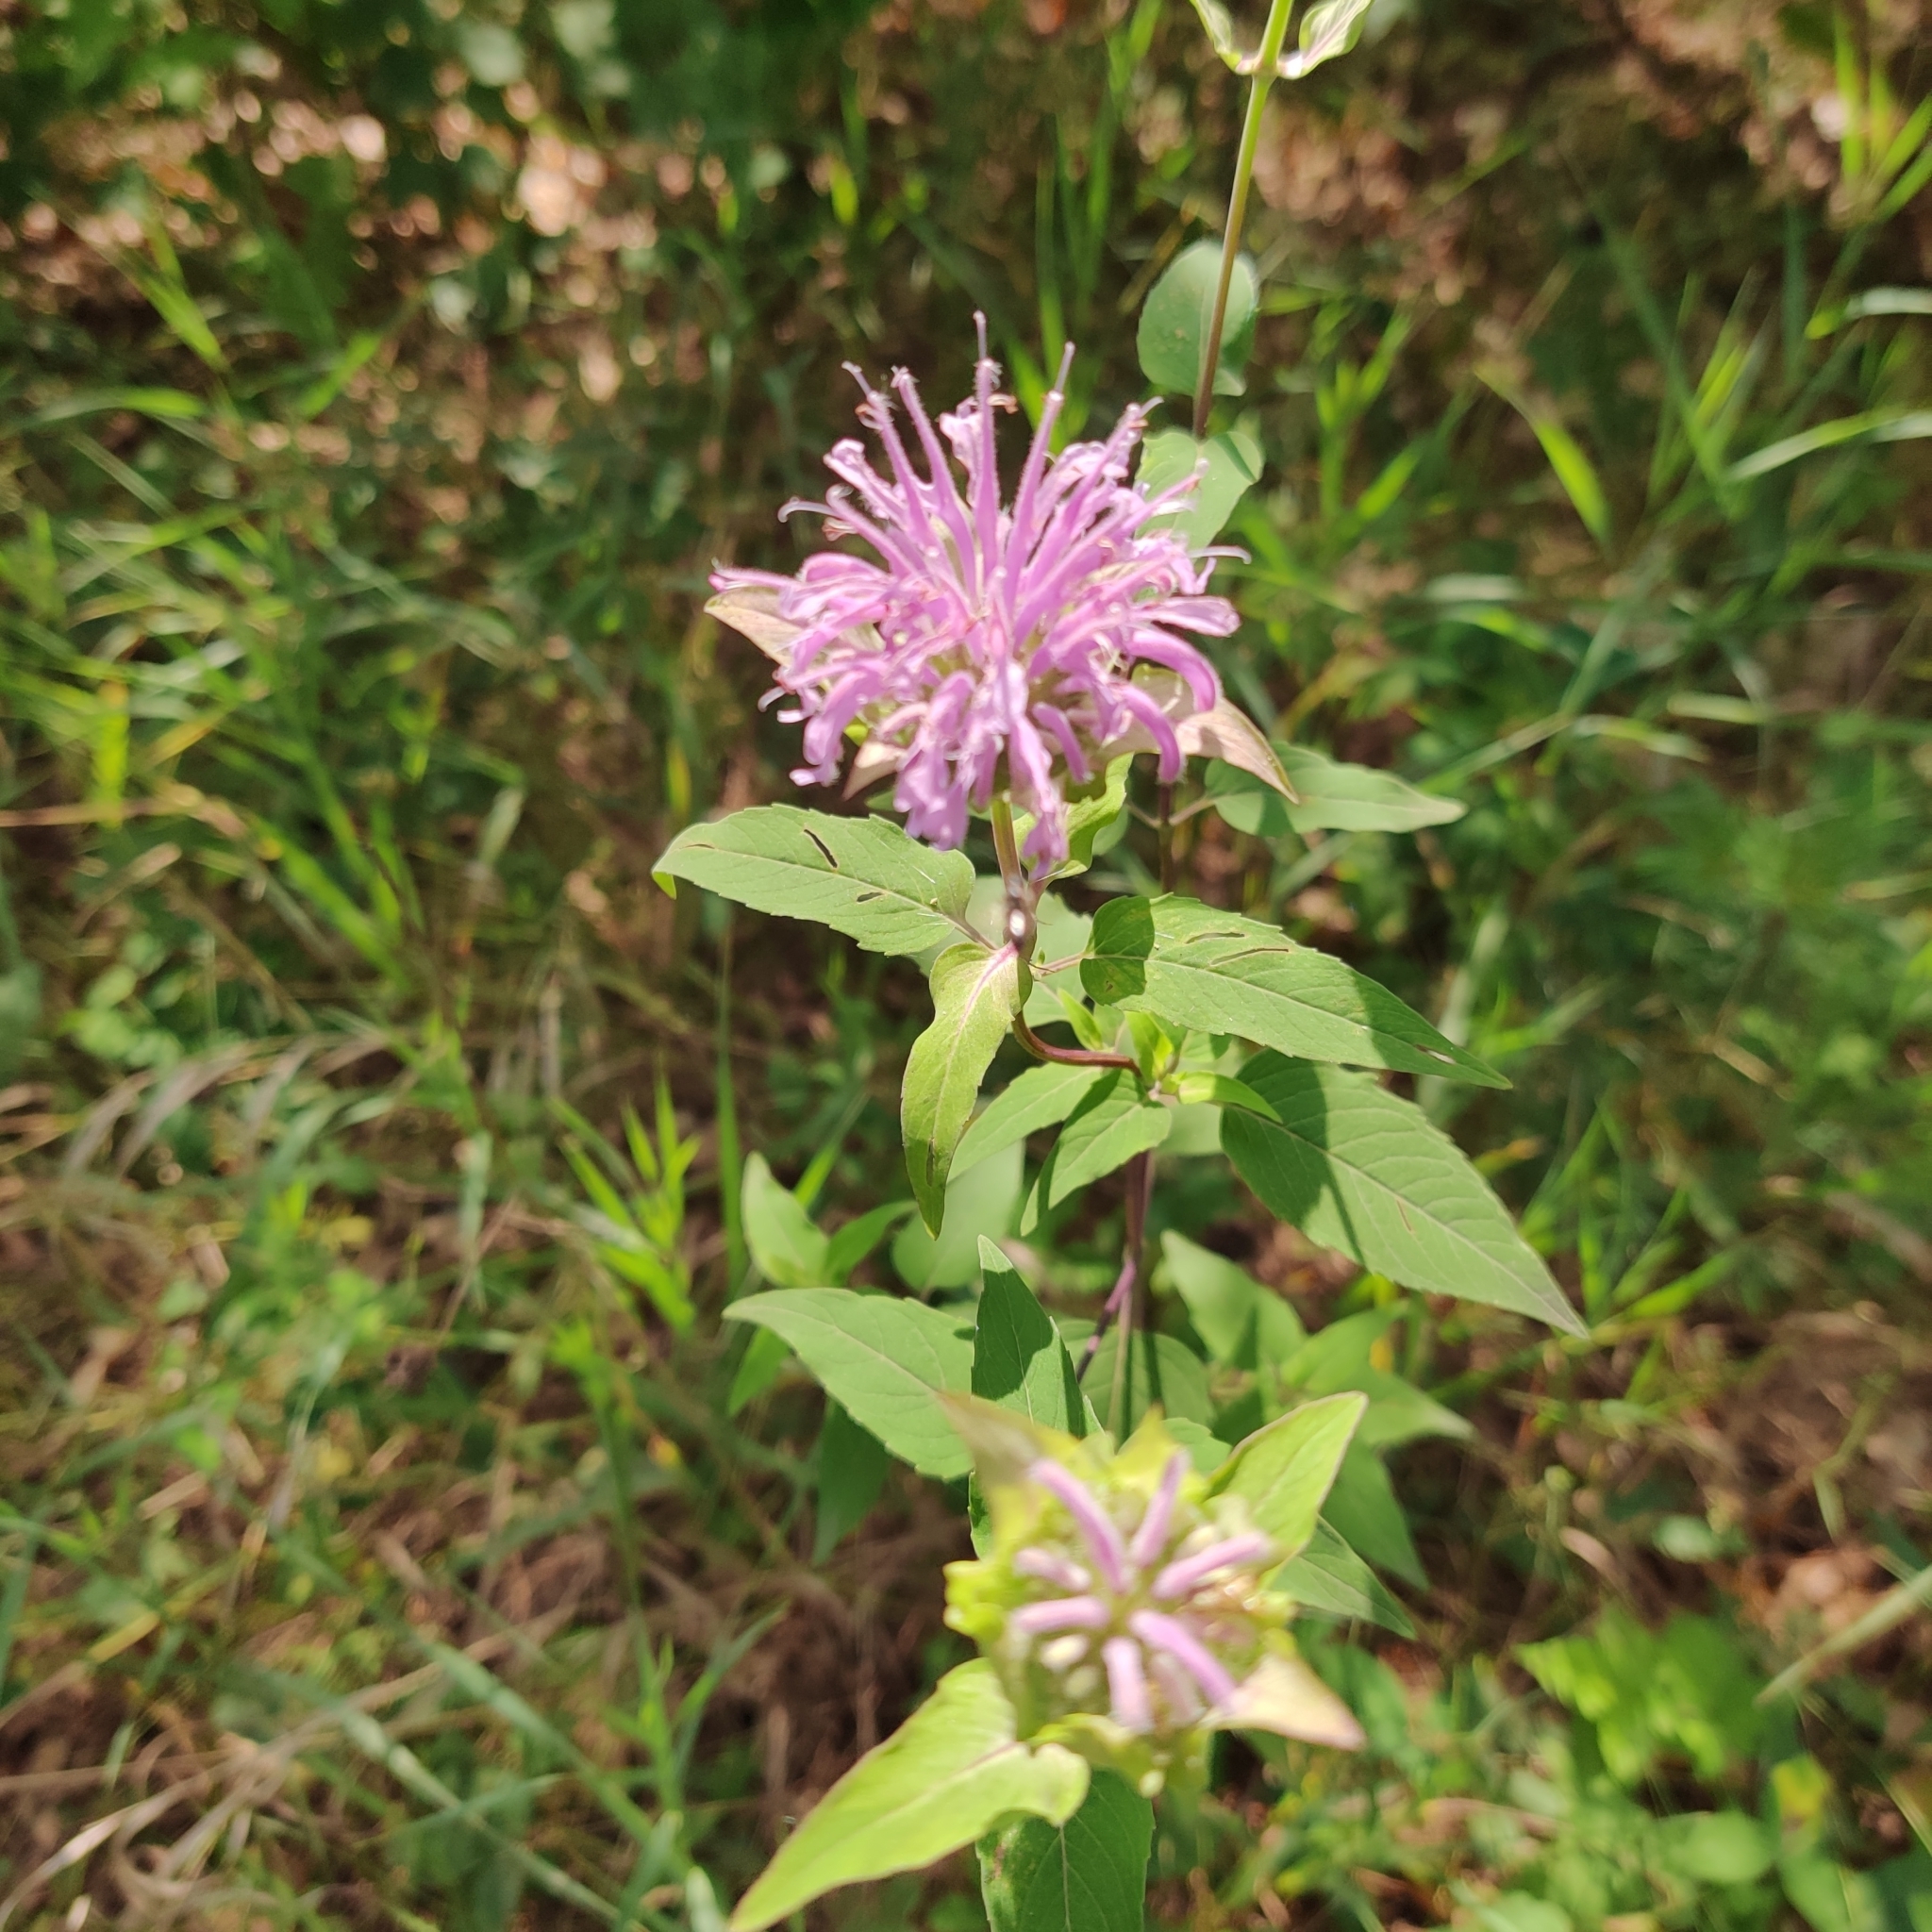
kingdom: Plantae
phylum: Tracheophyta
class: Magnoliopsida
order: Lamiales
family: Lamiaceae
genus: Monarda
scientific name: Monarda fistulosa
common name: Purple beebalm
